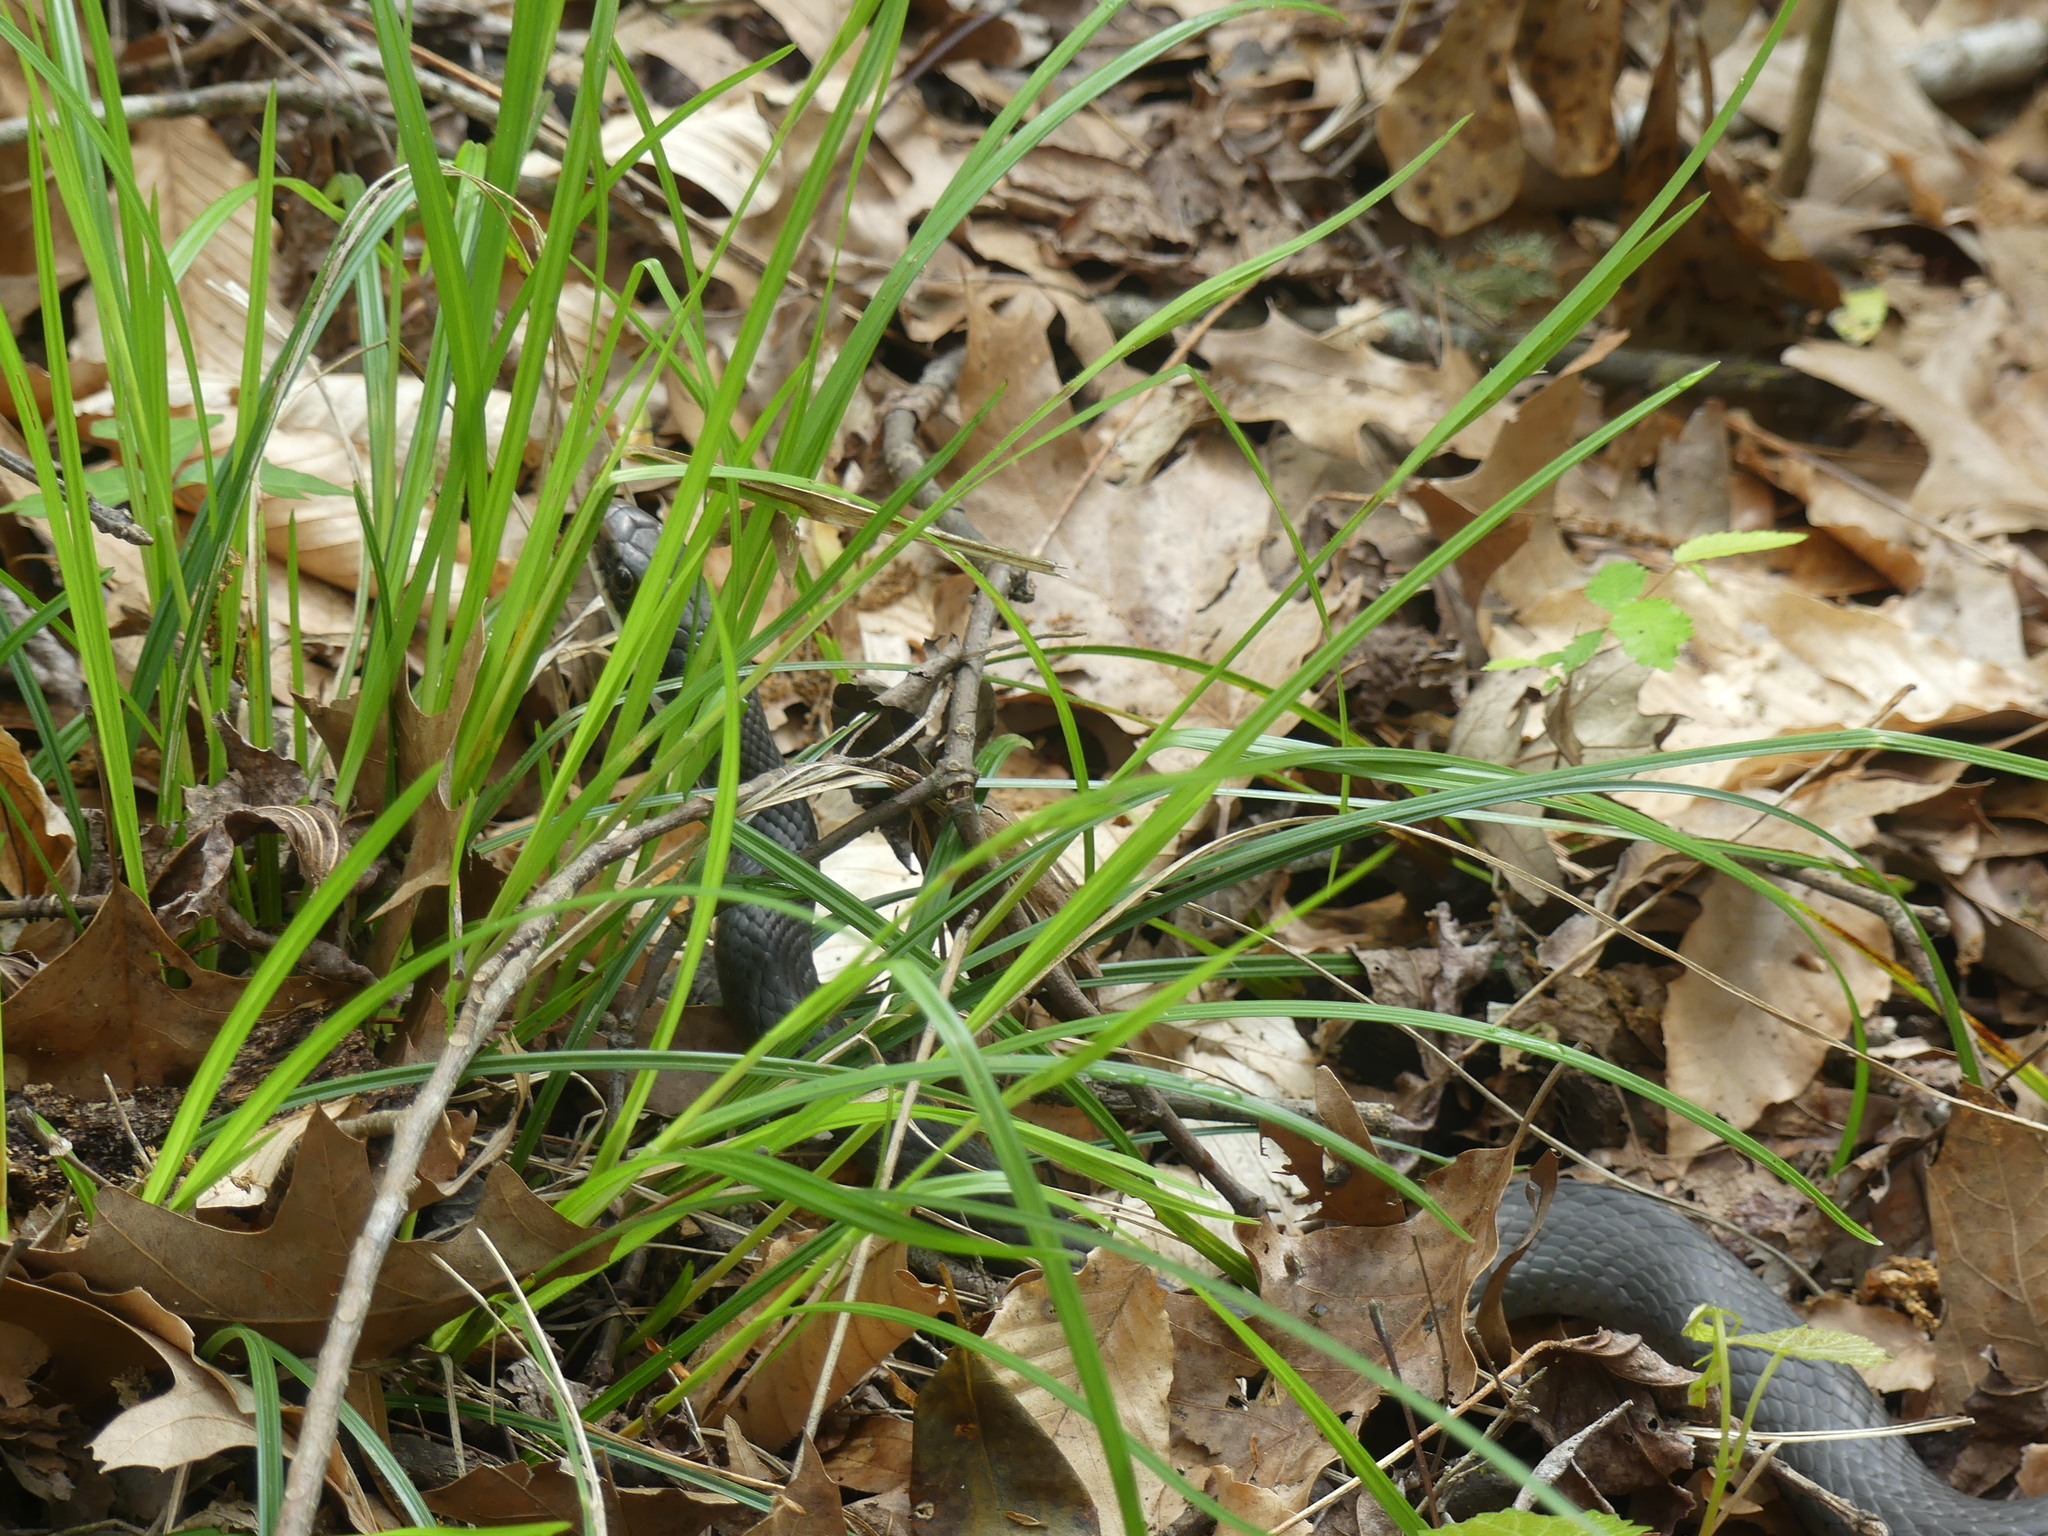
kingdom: Animalia
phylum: Chordata
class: Squamata
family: Colubridae
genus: Coluber
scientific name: Coluber constrictor
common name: Eastern racer
